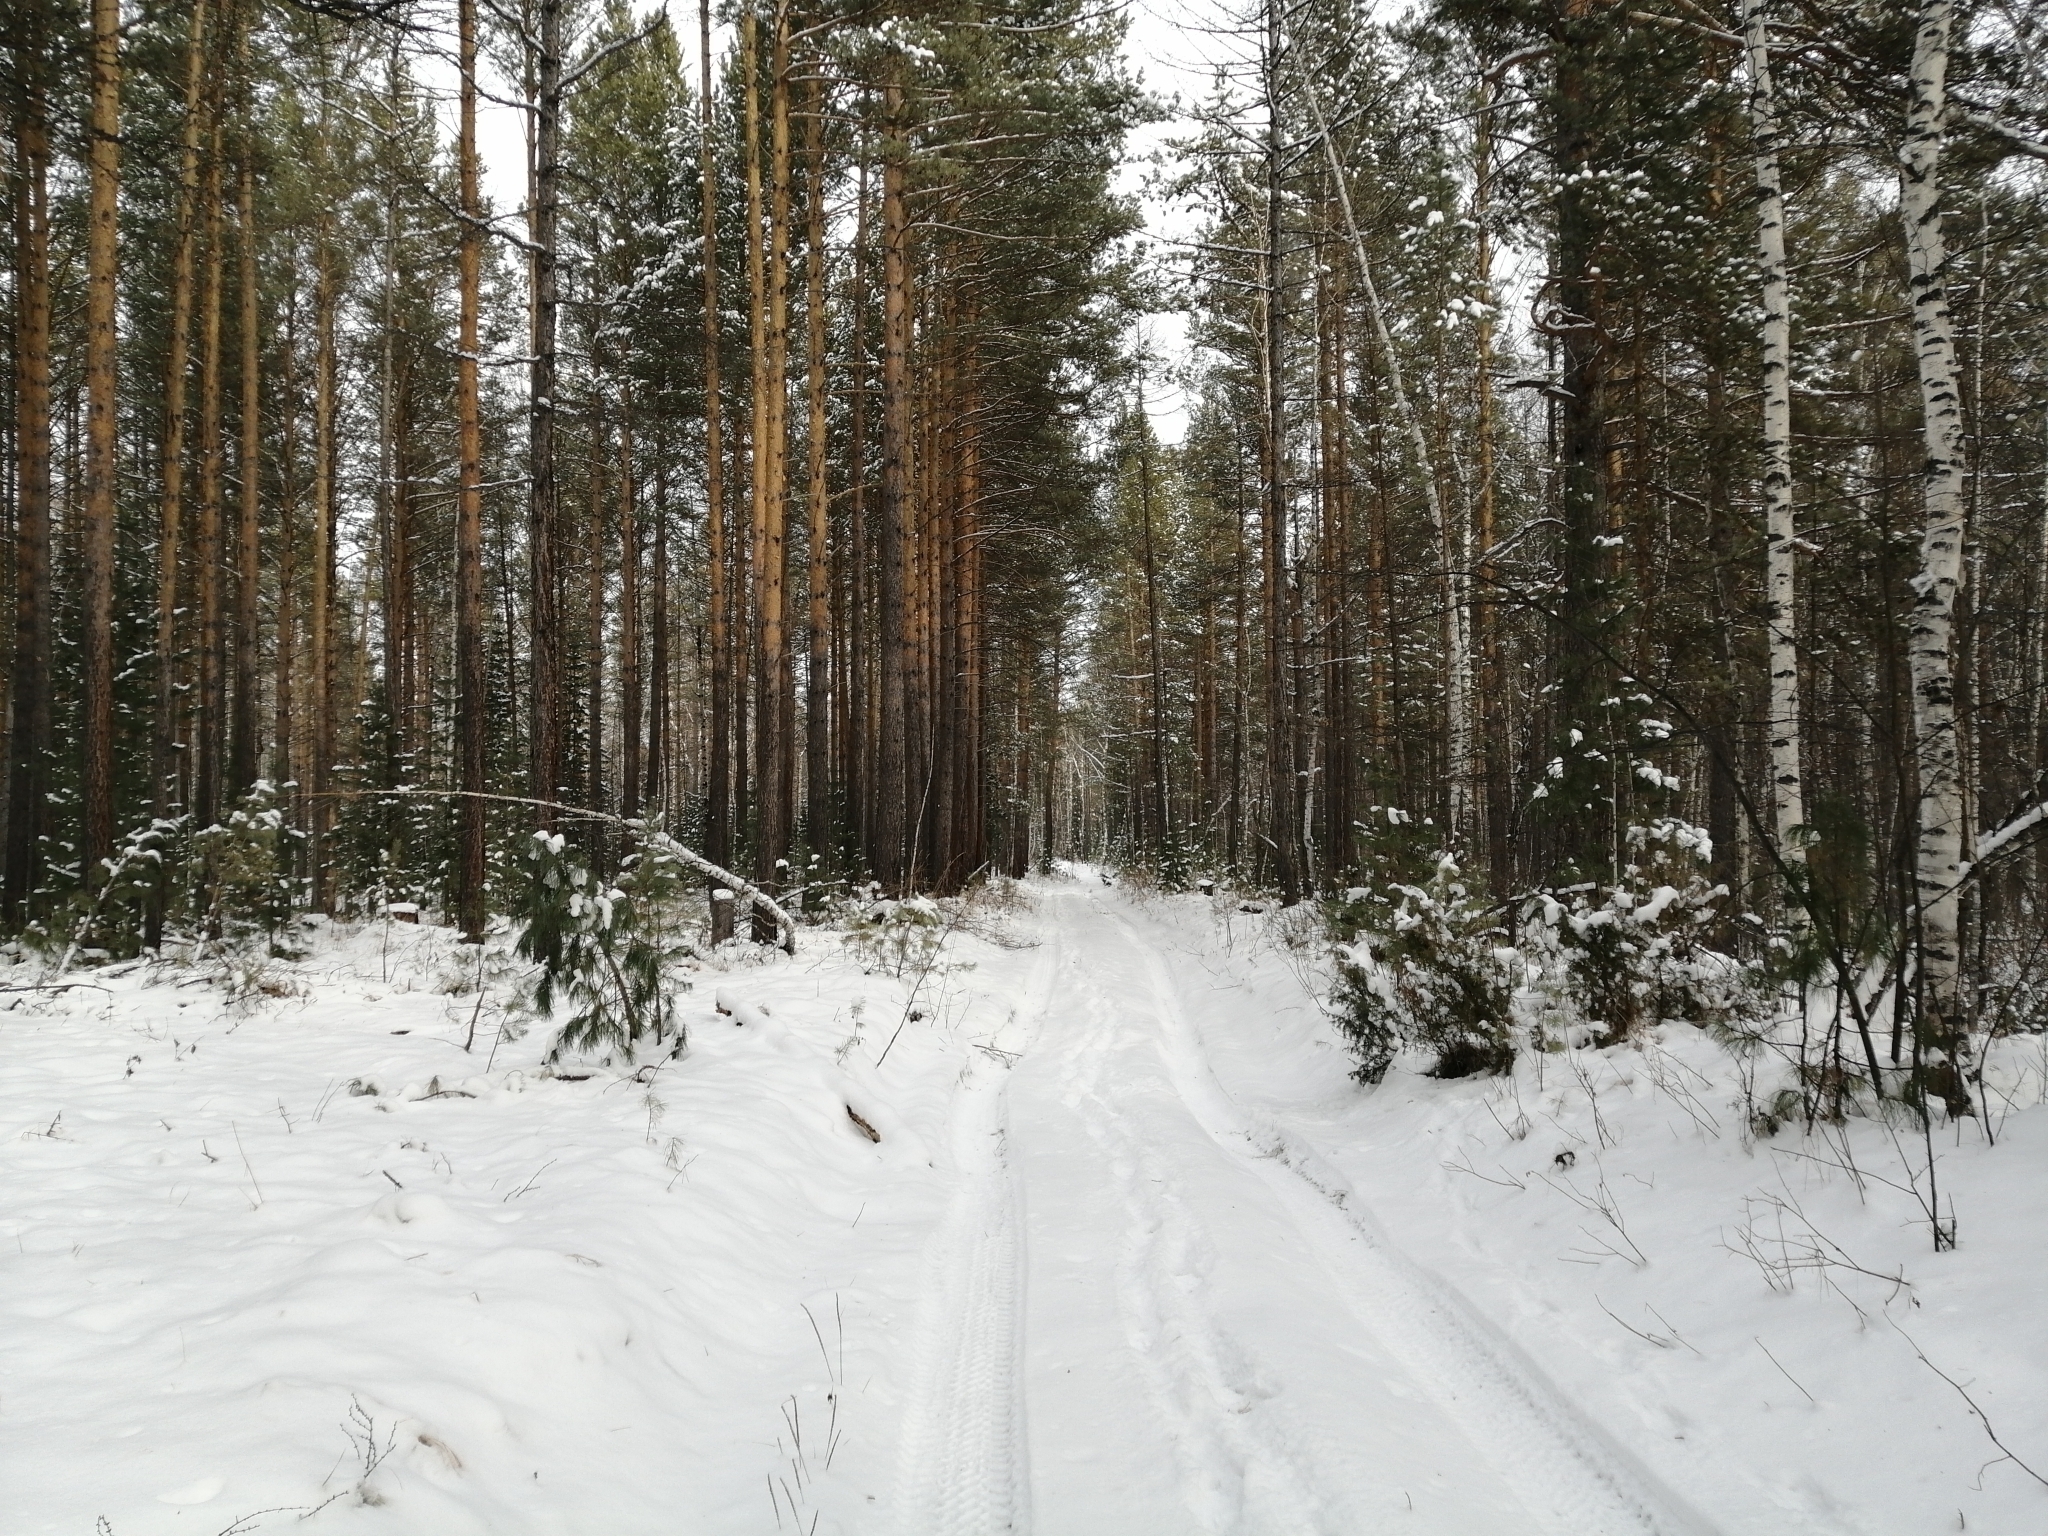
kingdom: Plantae
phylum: Tracheophyta
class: Pinopsida
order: Pinales
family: Pinaceae
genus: Pinus
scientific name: Pinus sylvestris
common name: Scots pine
